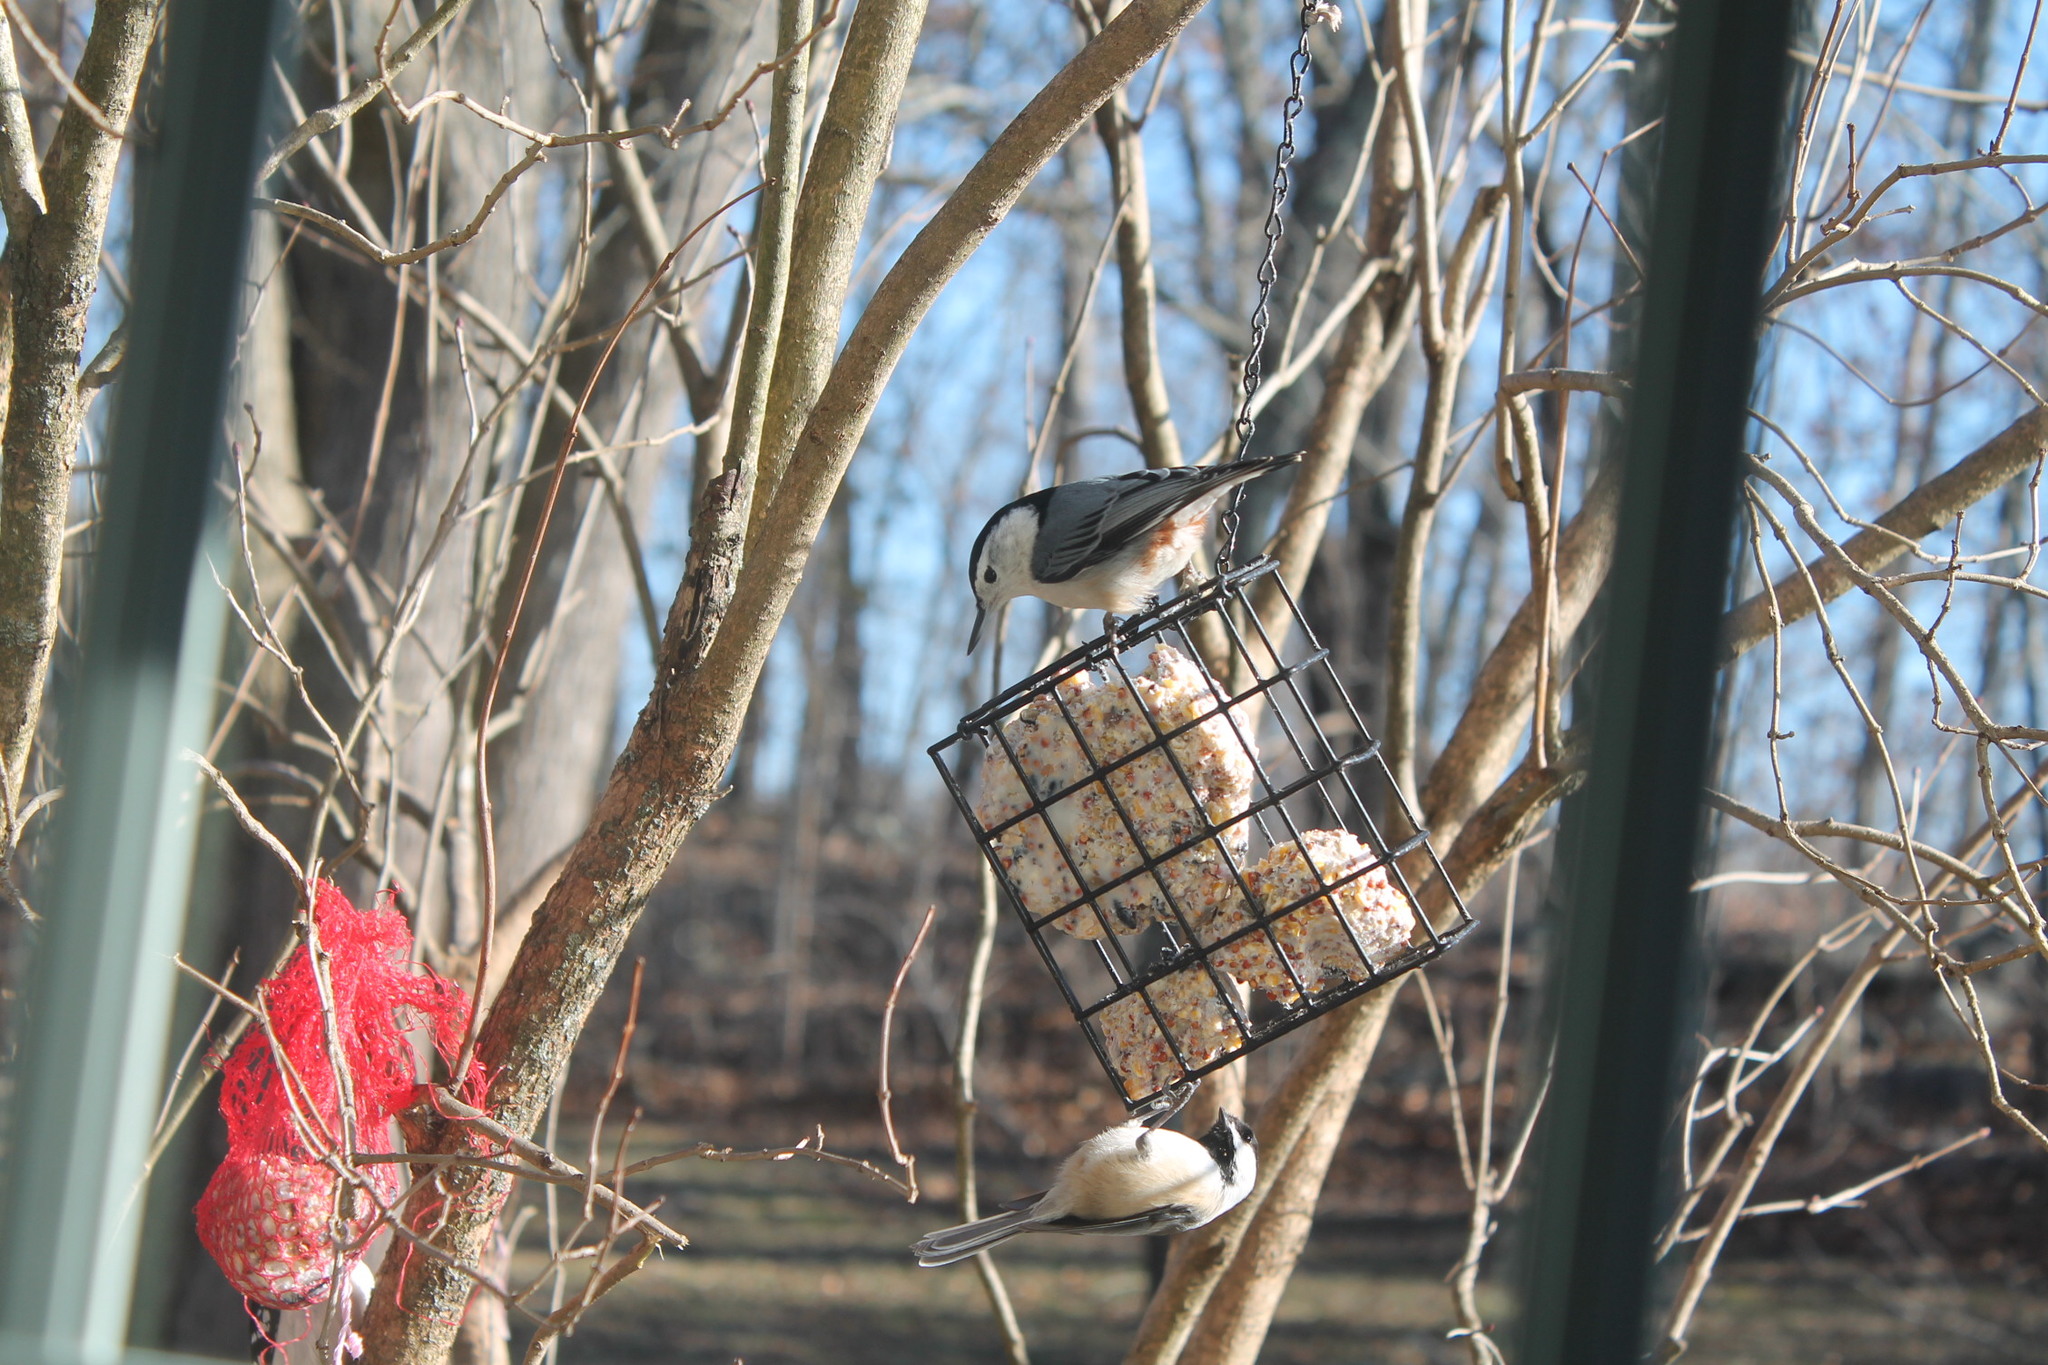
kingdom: Animalia
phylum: Chordata
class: Aves
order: Passeriformes
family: Sittidae
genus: Sitta
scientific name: Sitta carolinensis
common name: White-breasted nuthatch
